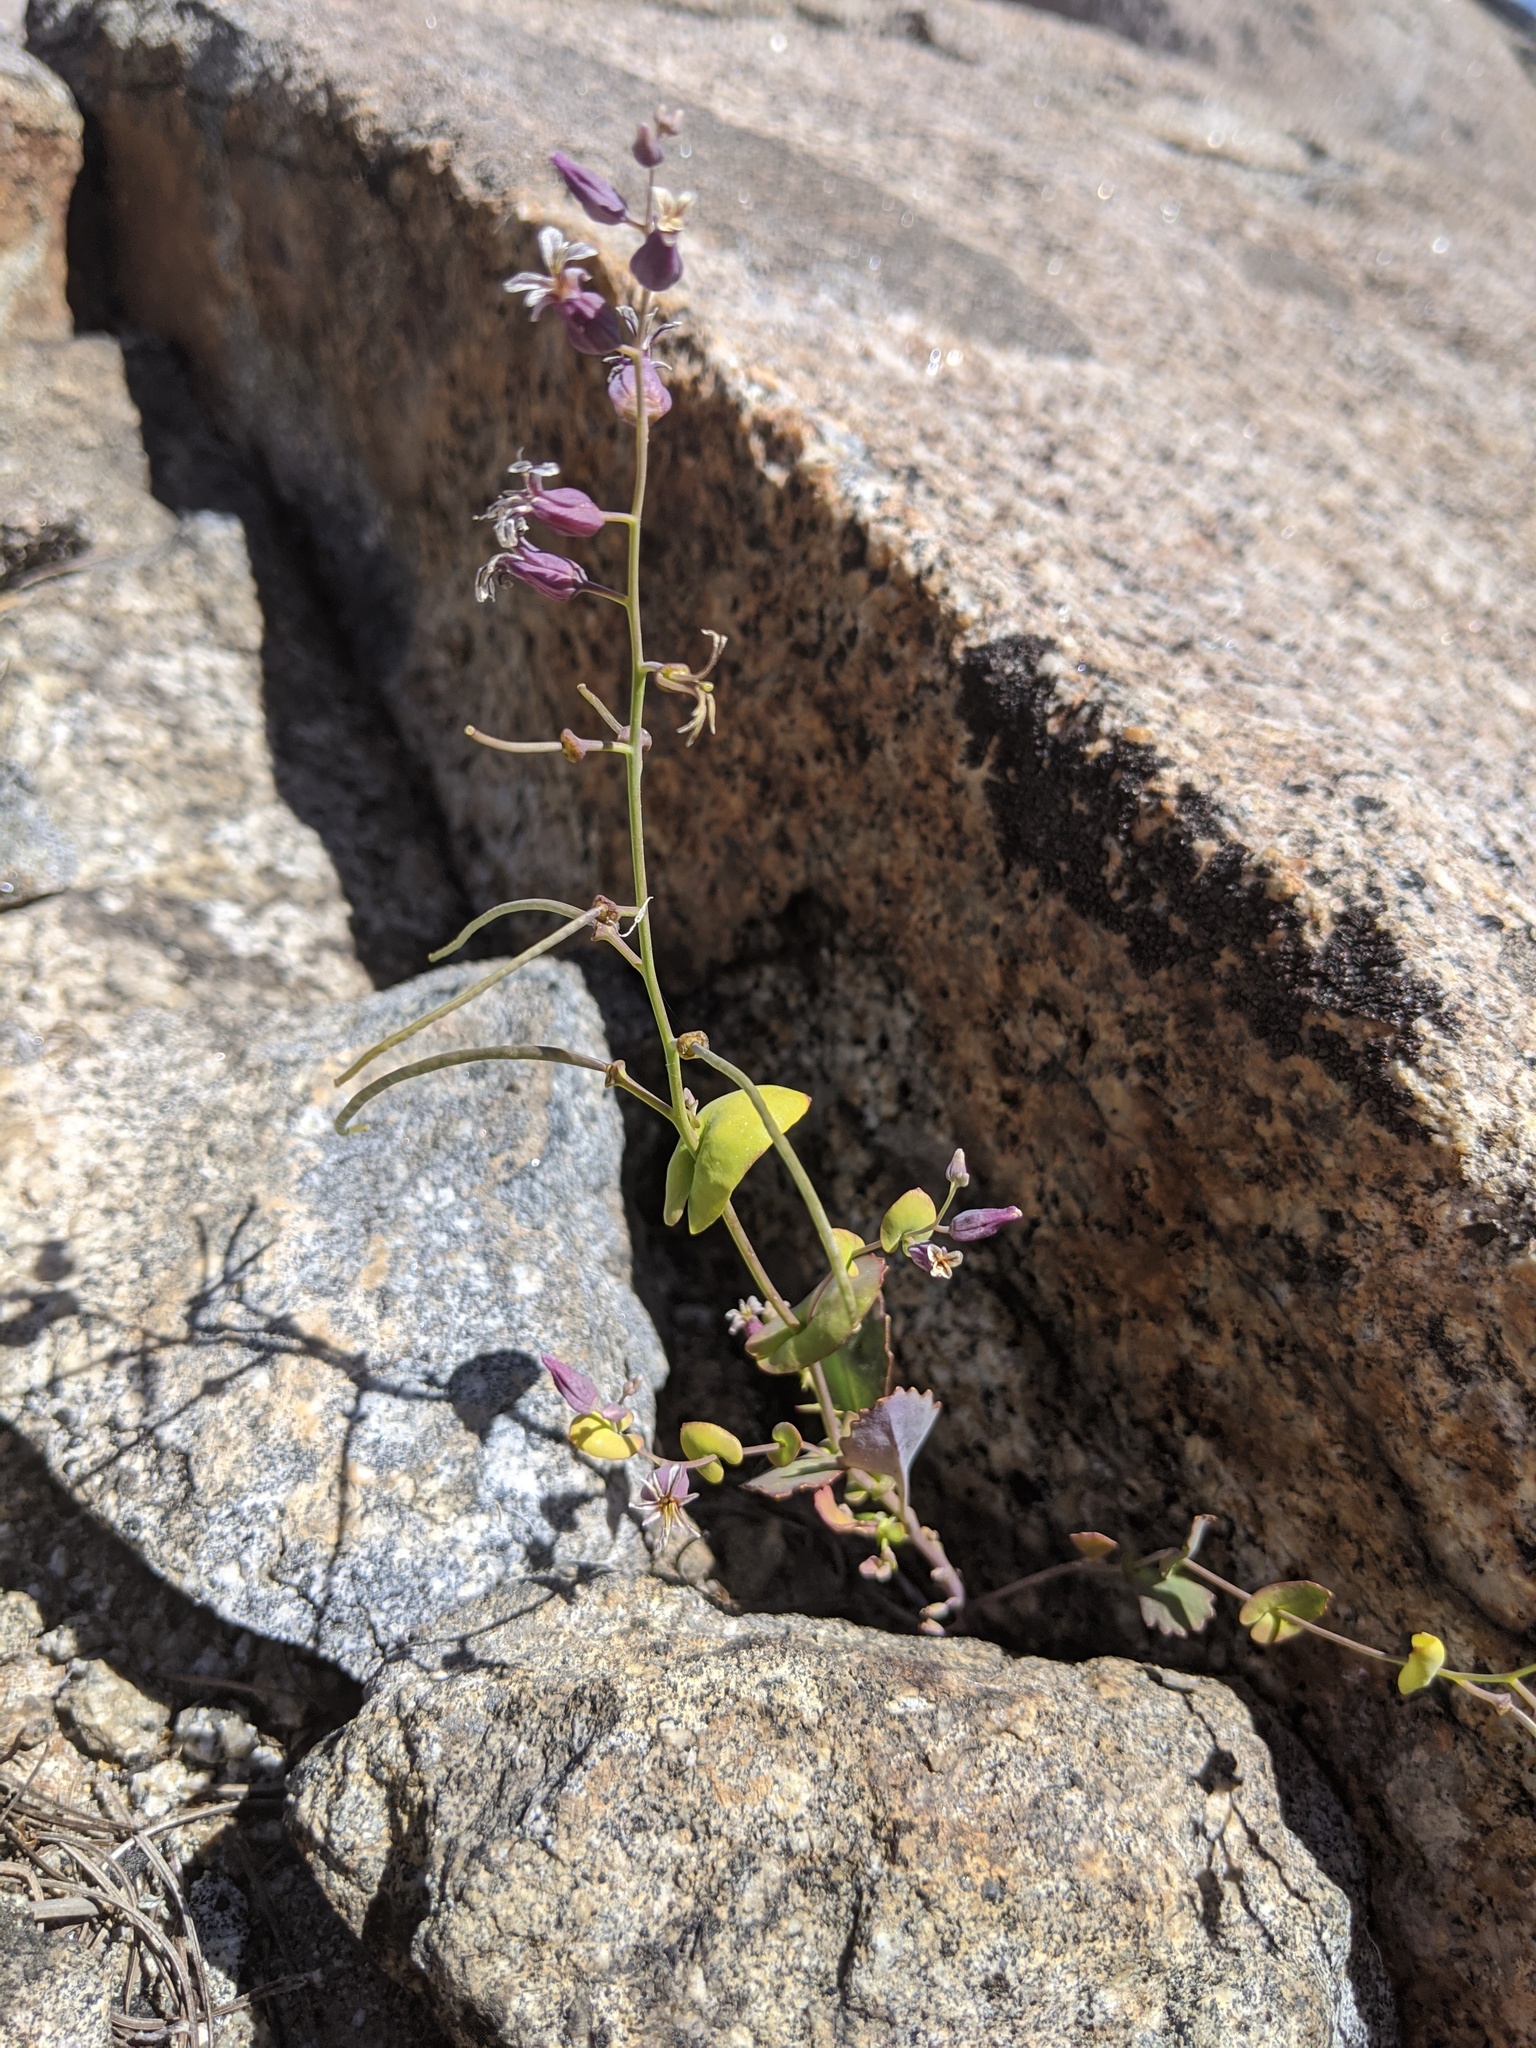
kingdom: Plantae
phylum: Tracheophyta
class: Magnoliopsida
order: Brassicales
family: Brassicaceae
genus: Streptanthus
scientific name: Streptanthus tortuosus
